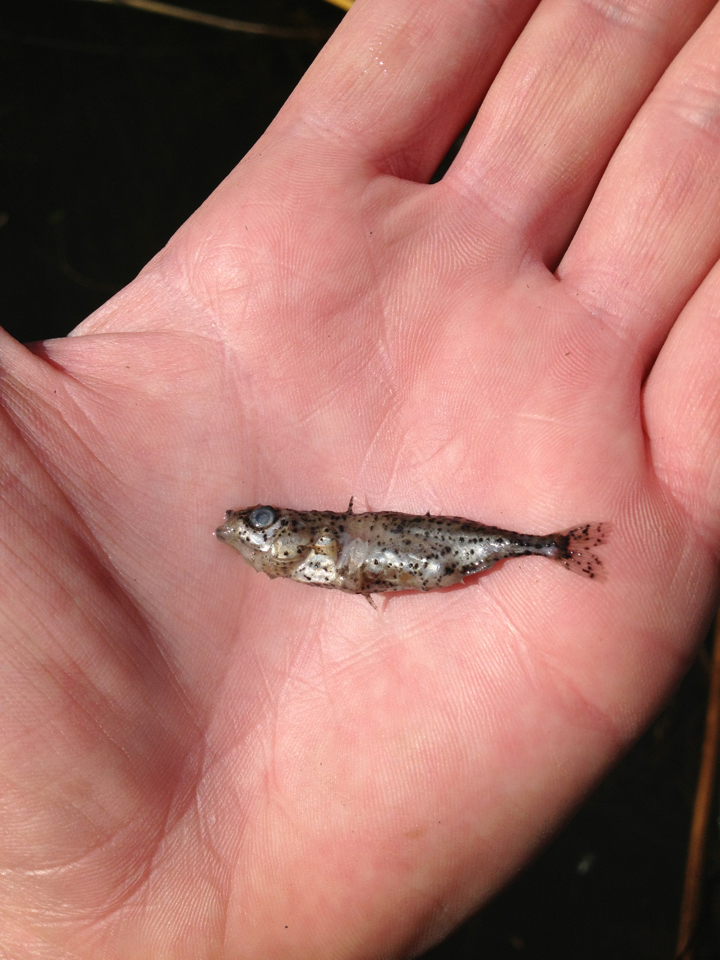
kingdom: Animalia
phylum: Chordata
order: Gasterosteiformes
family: Gasterosteidae
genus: Gasterosteus
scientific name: Gasterosteus aculeatus
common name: Three-spined stickleback
